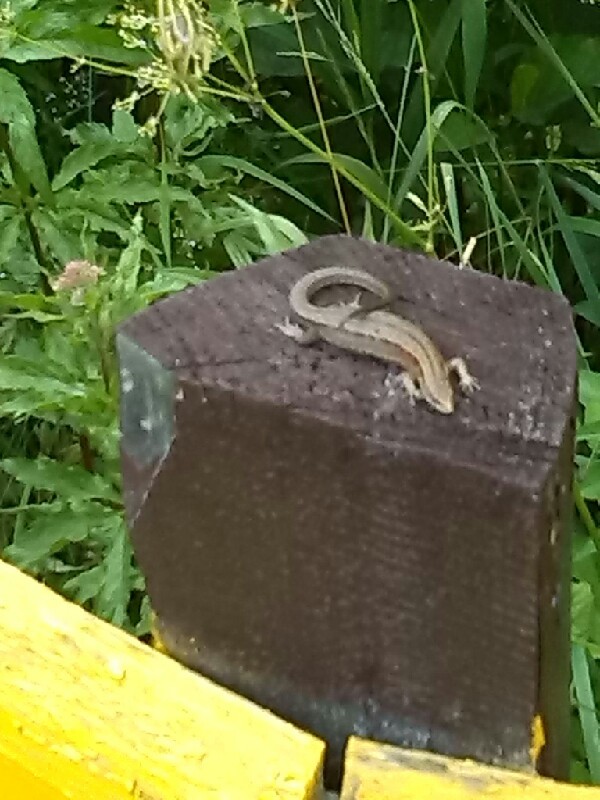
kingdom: Animalia
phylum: Chordata
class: Squamata
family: Lacertidae
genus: Zootoca
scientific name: Zootoca vivipara
